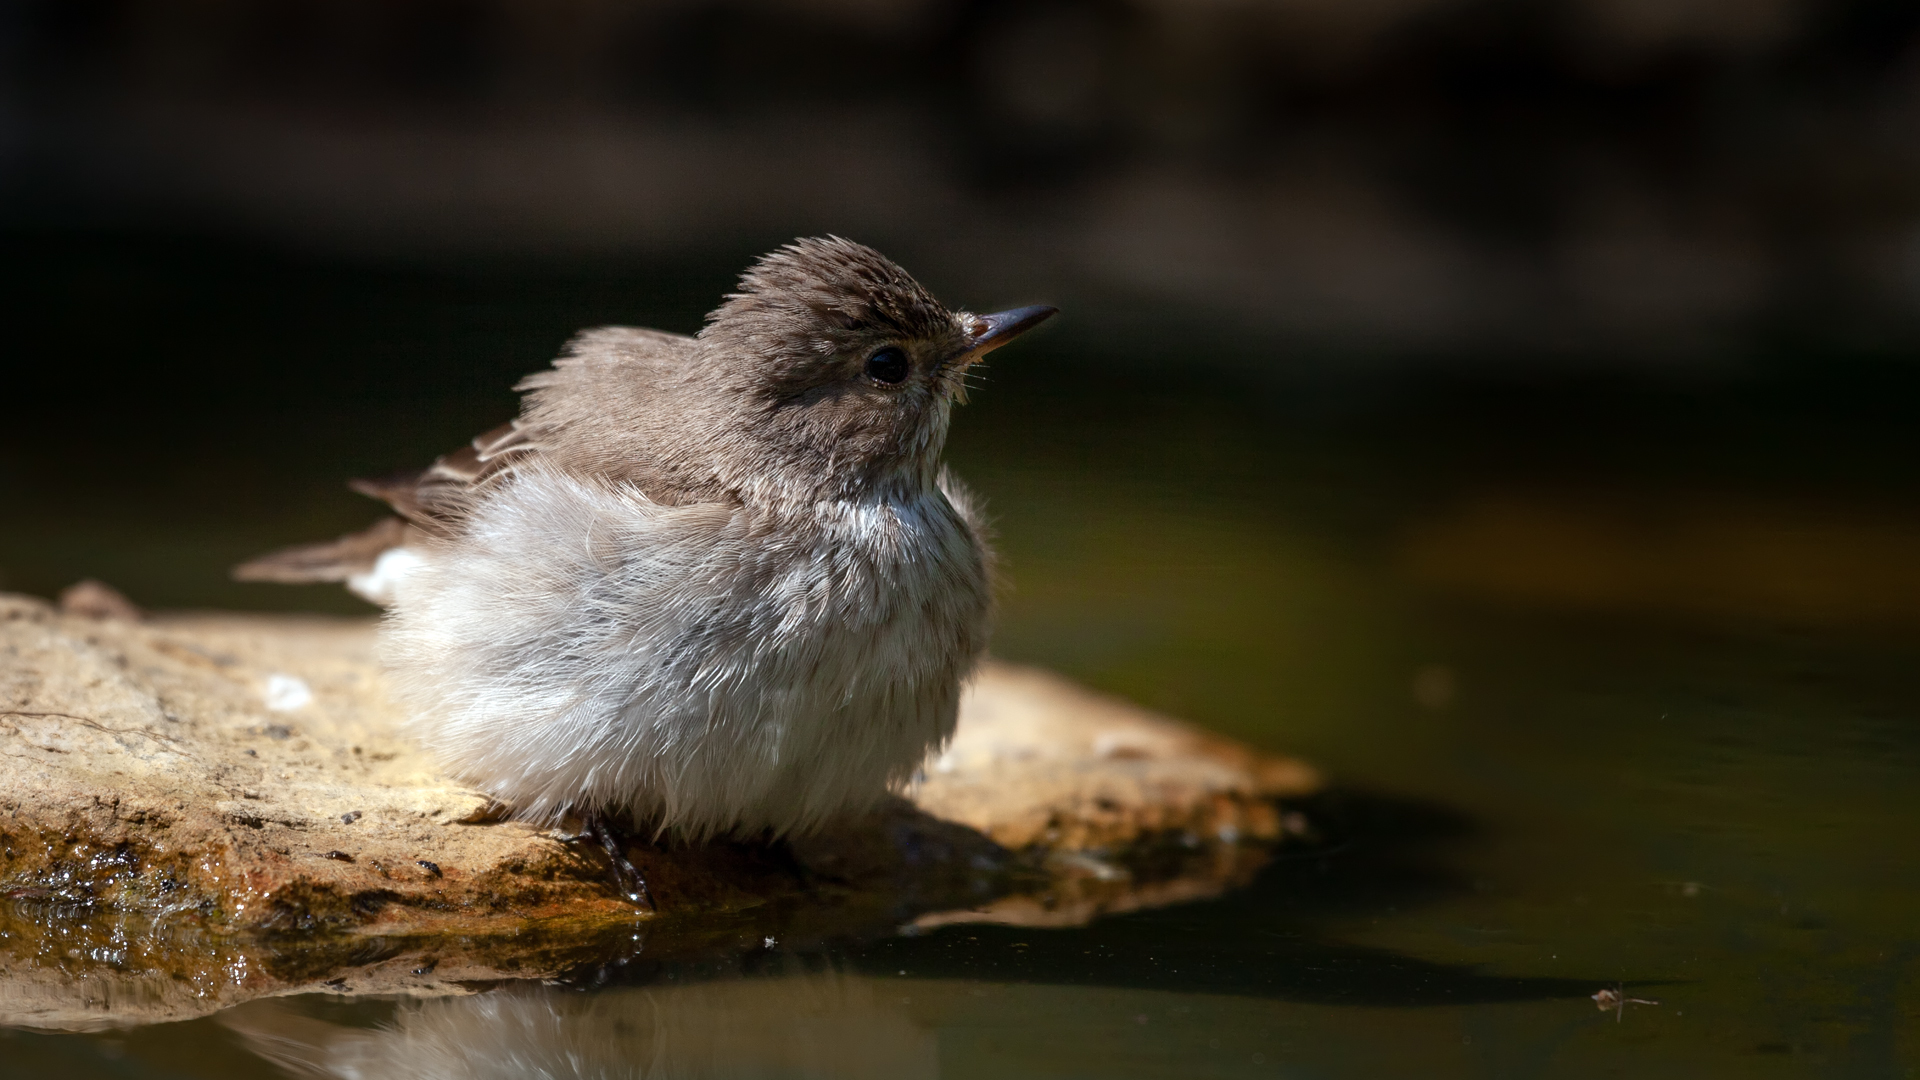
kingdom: Animalia
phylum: Chordata
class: Aves
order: Passeriformes
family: Muscicapidae
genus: Muscicapa
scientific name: Muscicapa striata
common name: Spotted flycatcher
